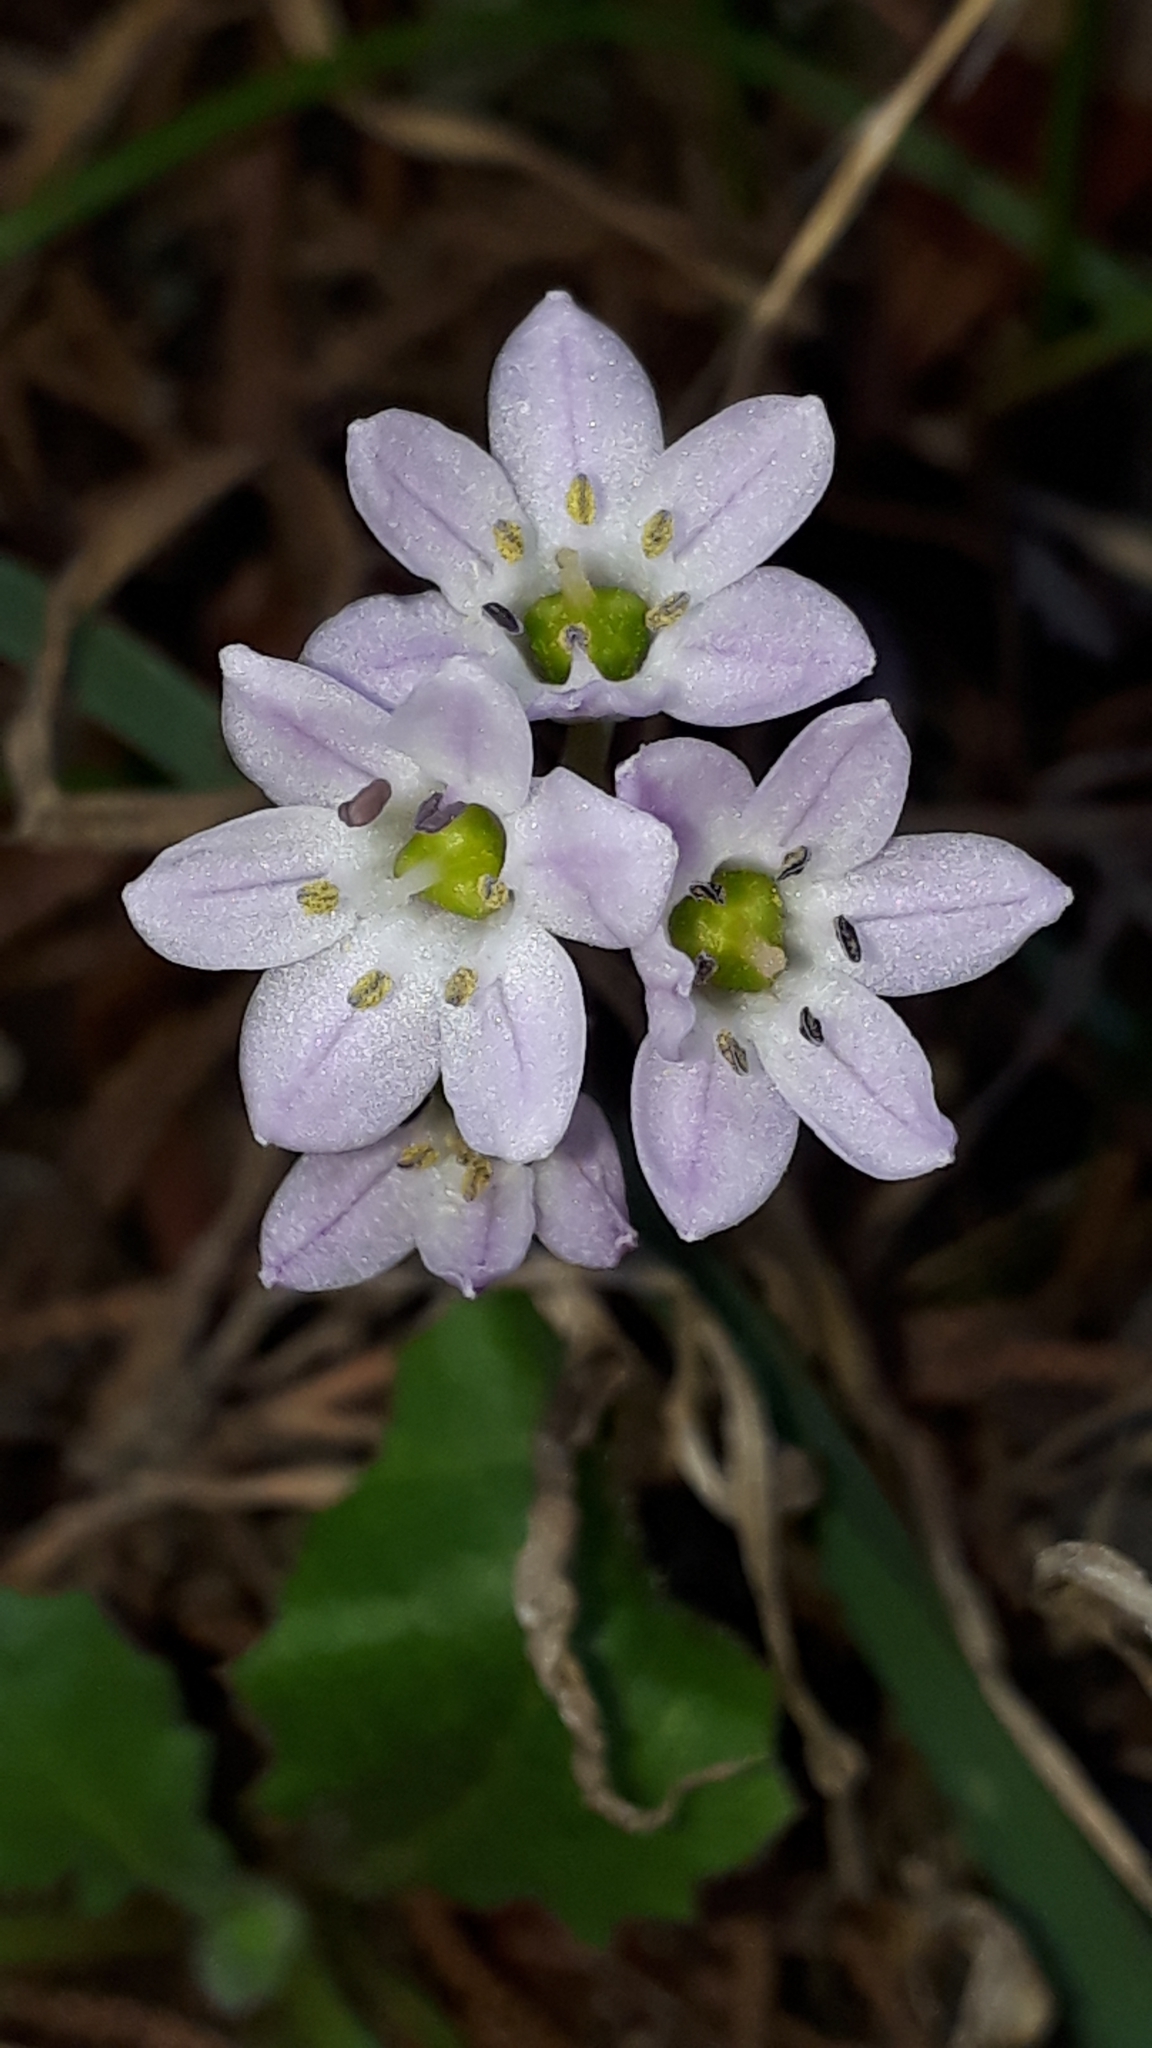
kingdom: Plantae
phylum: Tracheophyta
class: Liliopsida
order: Asparagales
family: Asparagaceae
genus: Brimeura
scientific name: Brimeura fastigiata
